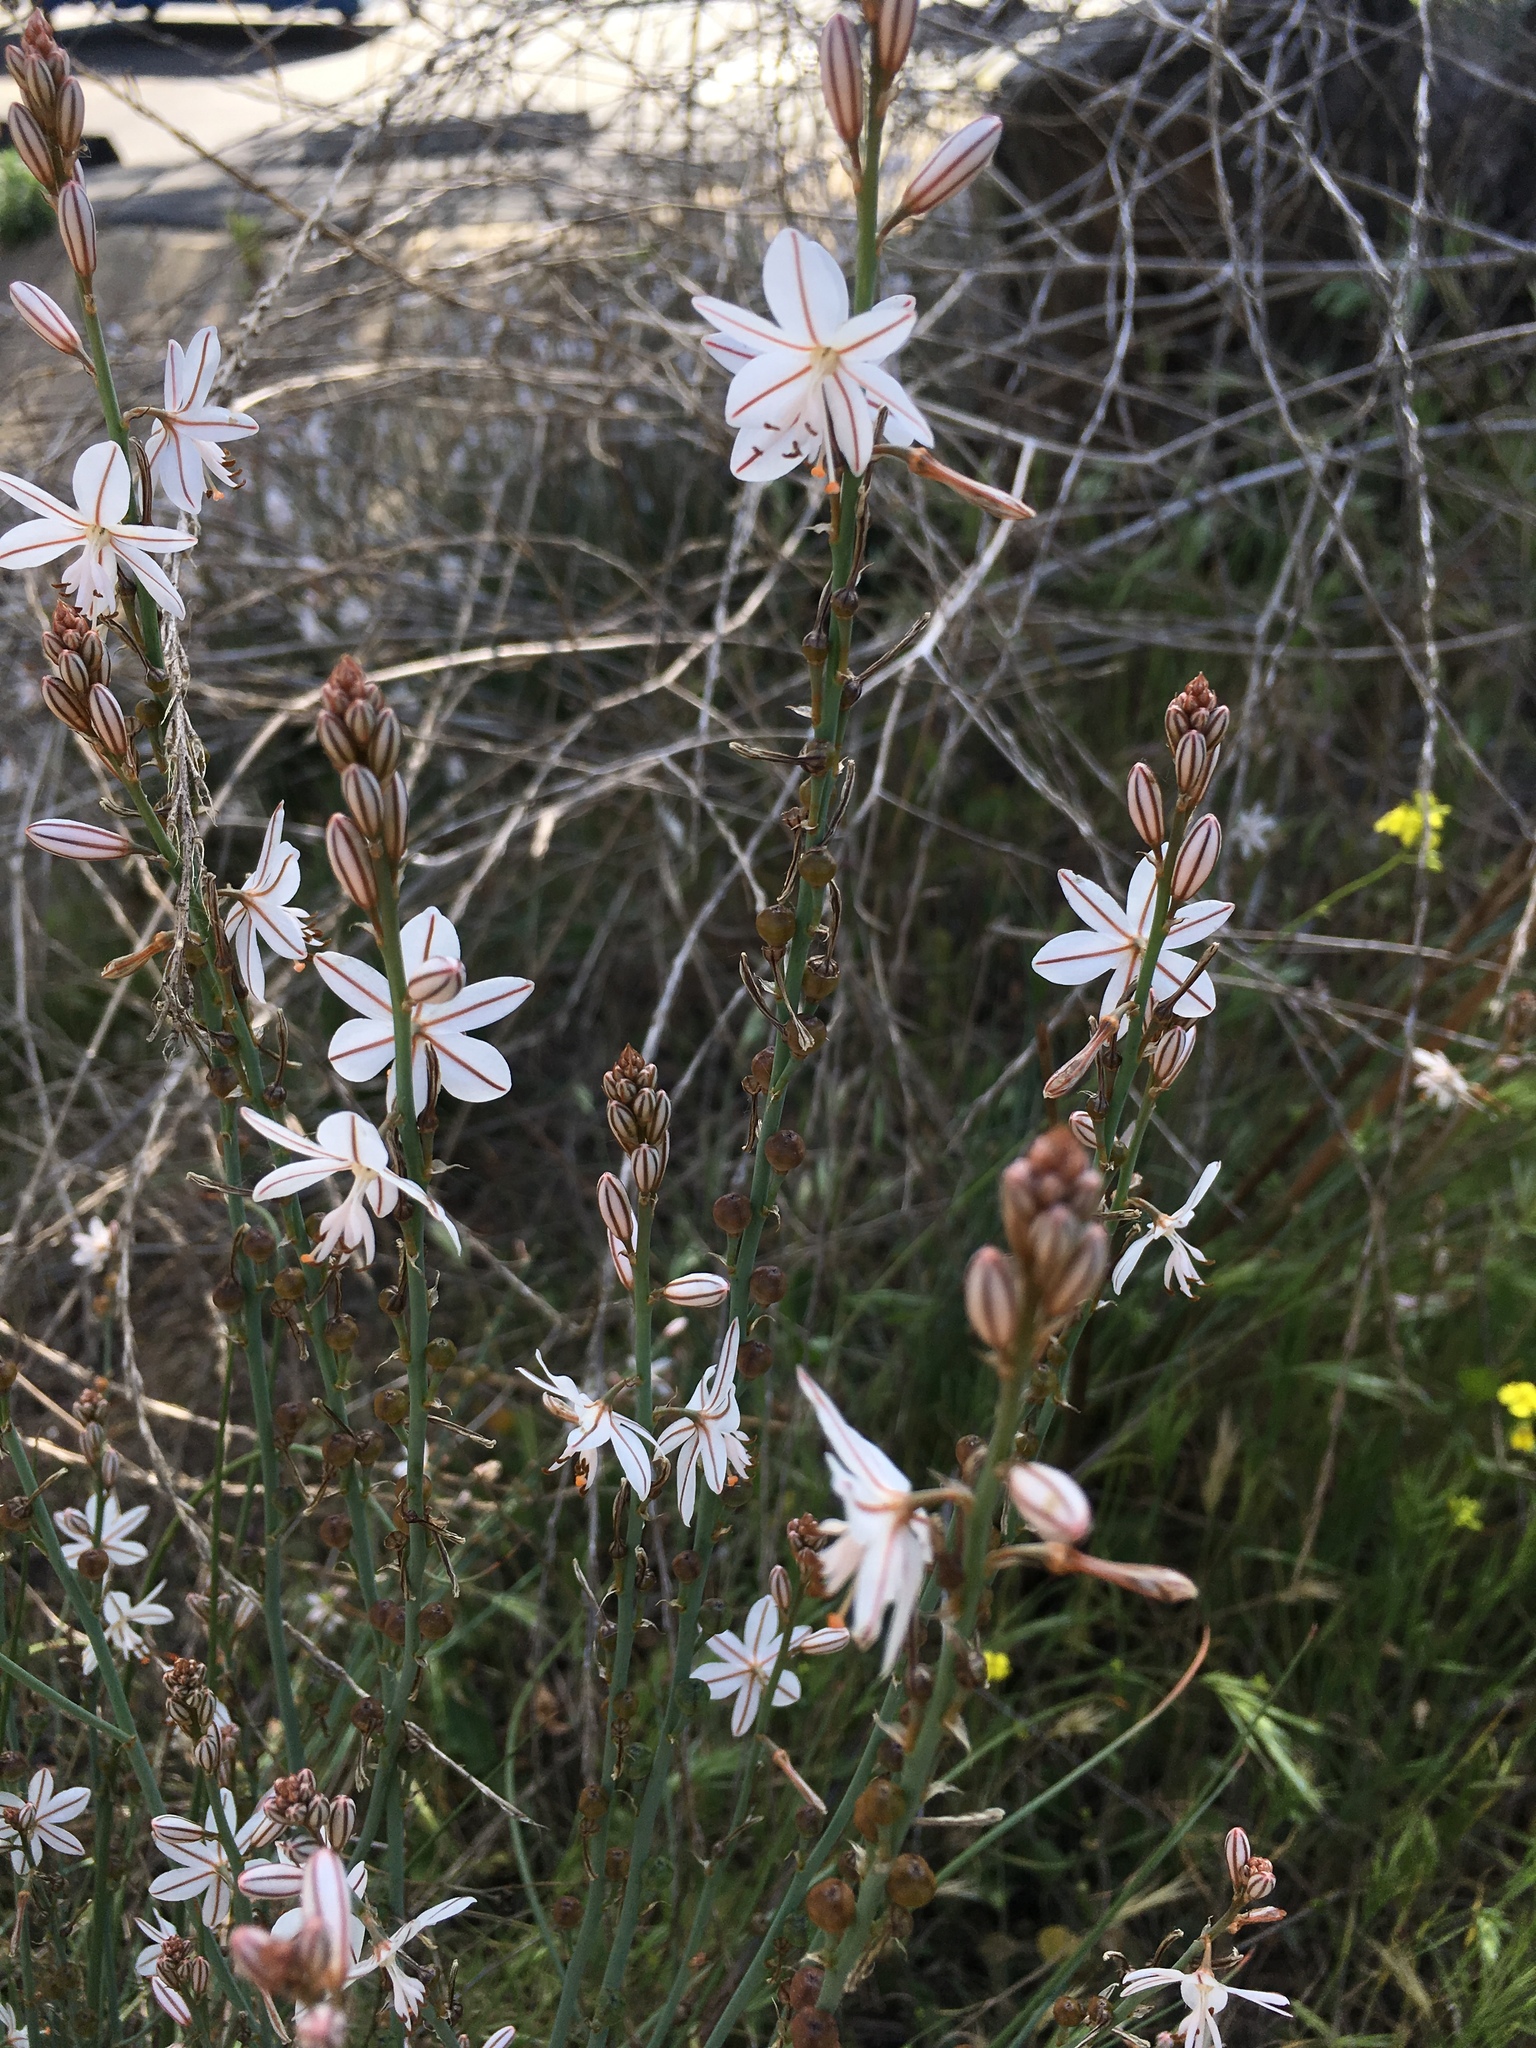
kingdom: Plantae
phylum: Tracheophyta
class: Liliopsida
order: Asparagales
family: Asphodelaceae
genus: Asphodelus
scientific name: Asphodelus fistulosus
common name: Onionweed
